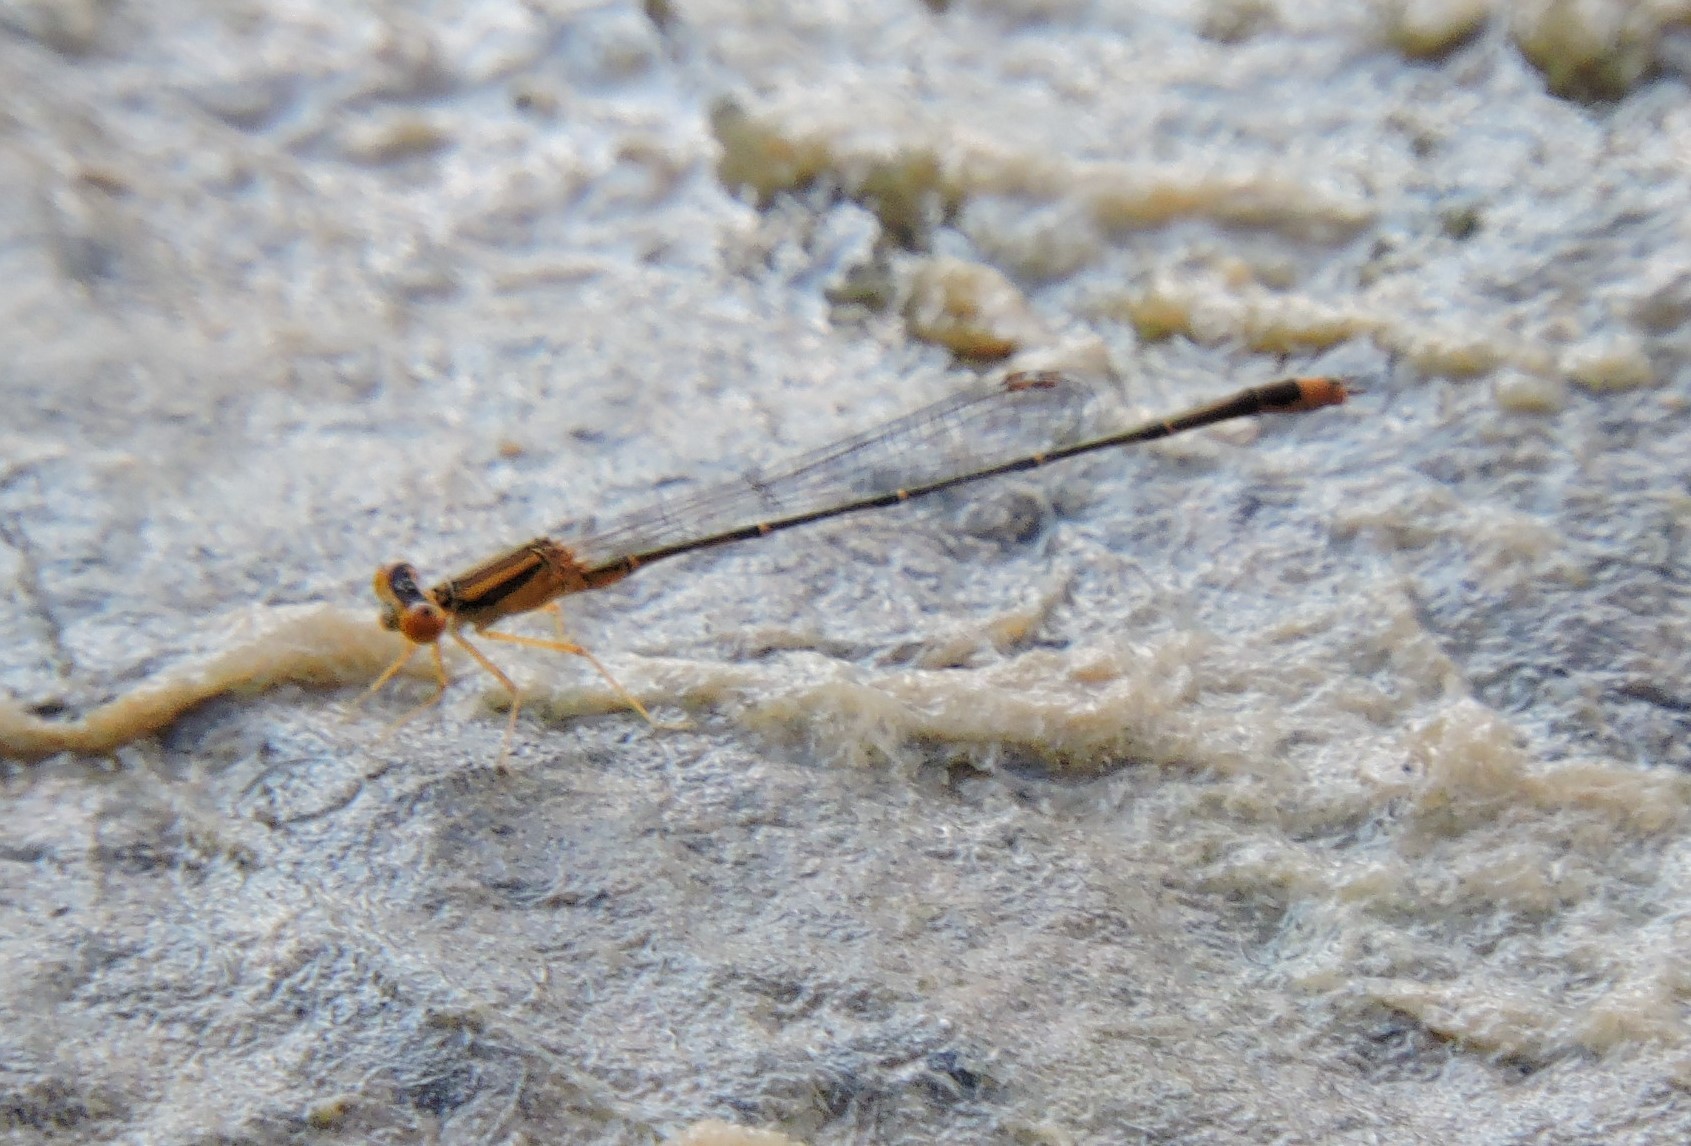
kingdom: Animalia
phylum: Arthropoda
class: Insecta
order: Odonata
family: Coenagrionidae
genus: Enallagma
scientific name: Enallagma signatum
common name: Orange bluet
